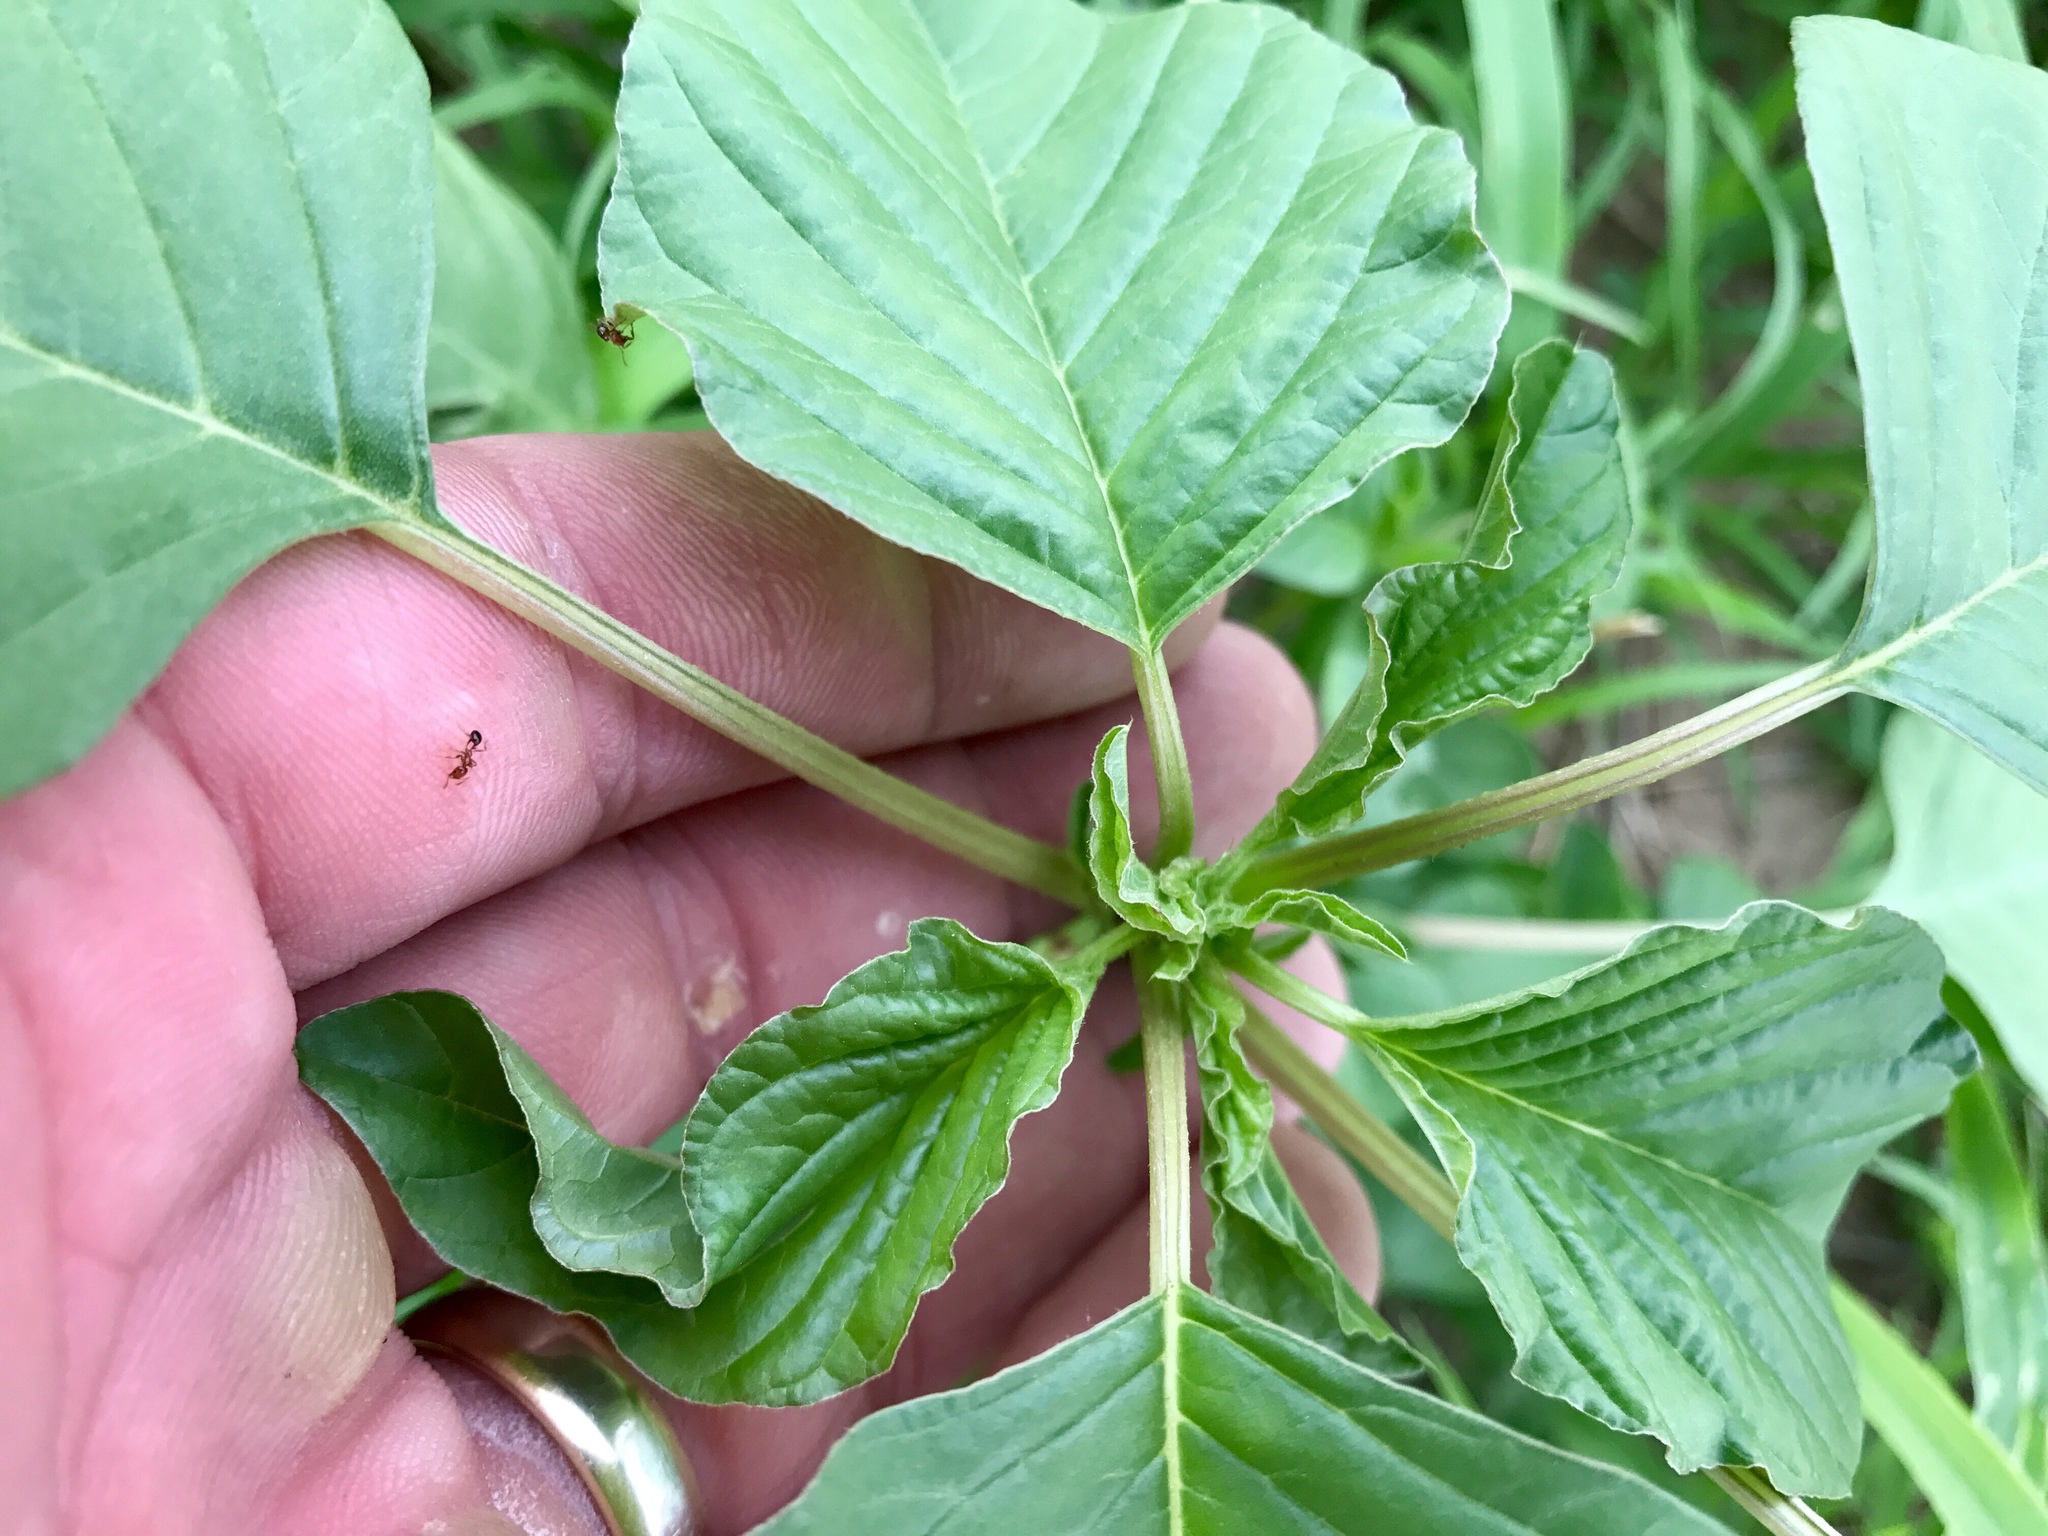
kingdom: Plantae
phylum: Tracheophyta
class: Magnoliopsida
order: Caryophyllales
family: Amaranthaceae
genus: Amaranthus
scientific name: Amaranthus palmeri
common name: Dioecious amaranth
